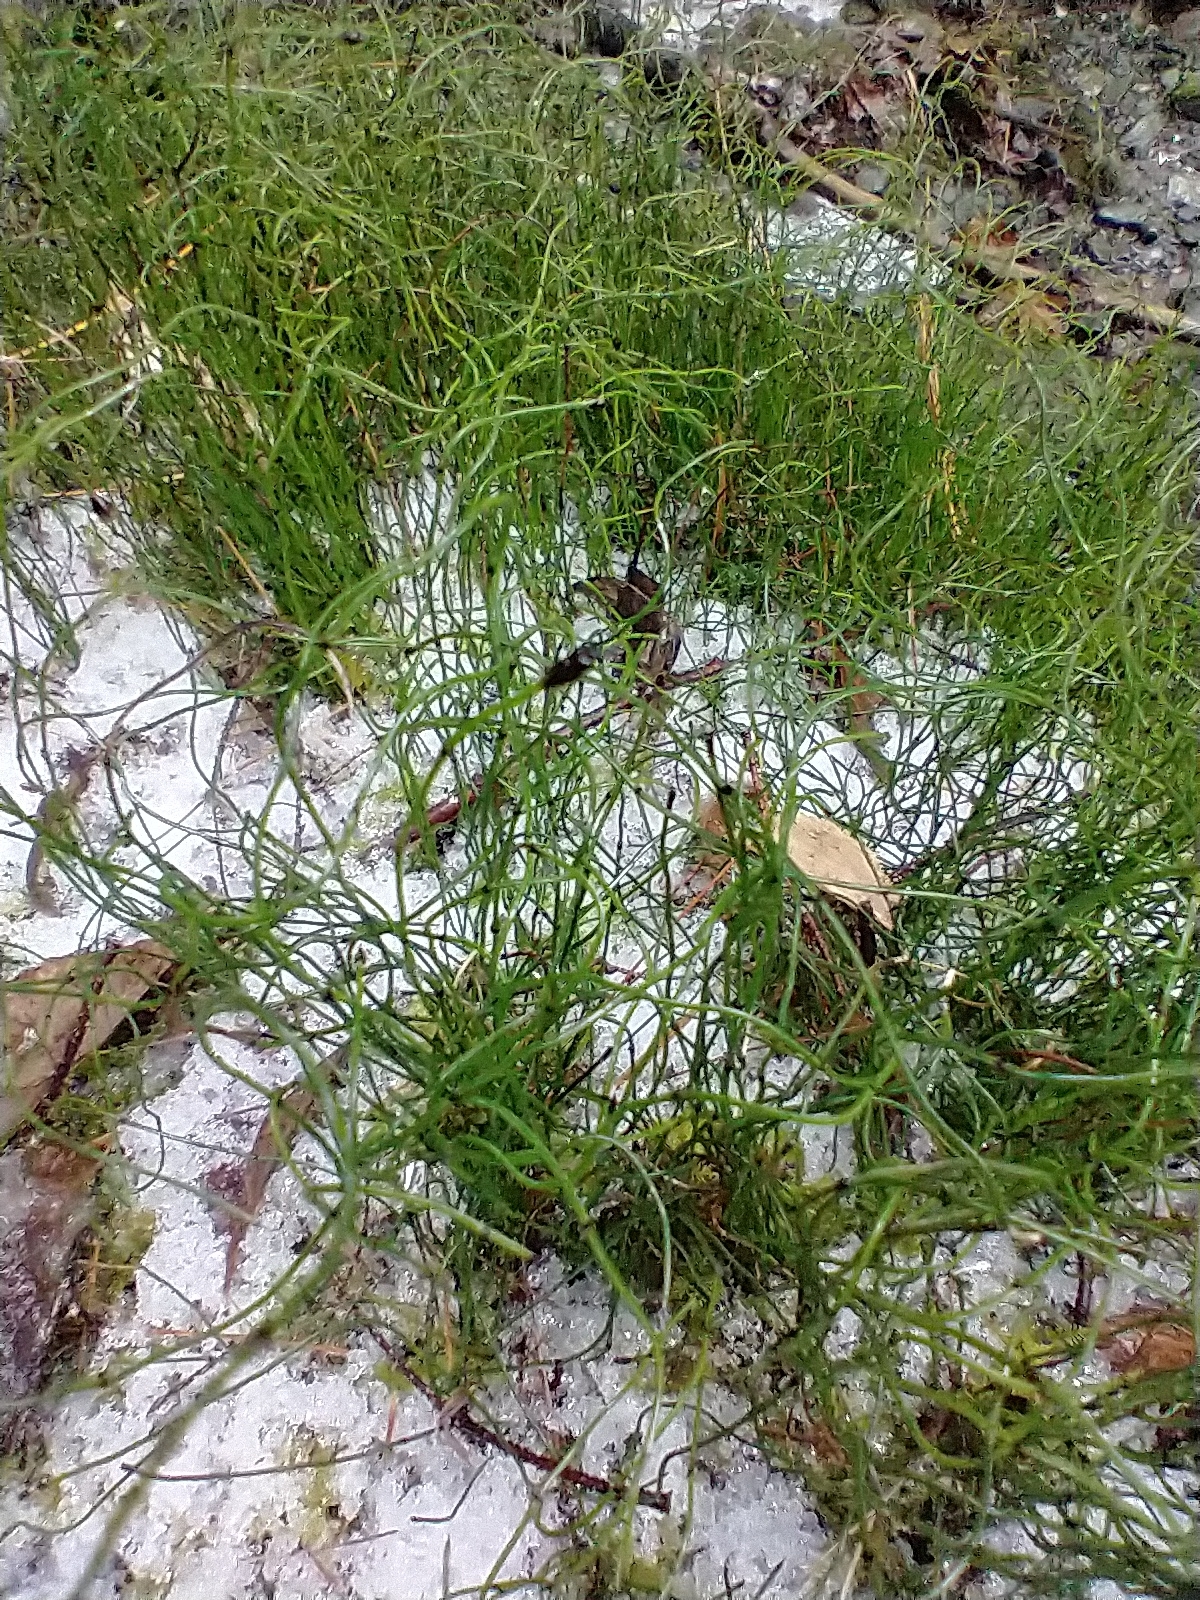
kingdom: Plantae
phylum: Tracheophyta
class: Polypodiopsida
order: Equisetales
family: Equisetaceae
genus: Equisetum
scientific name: Equisetum scirpoides
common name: Delicate horsetail
